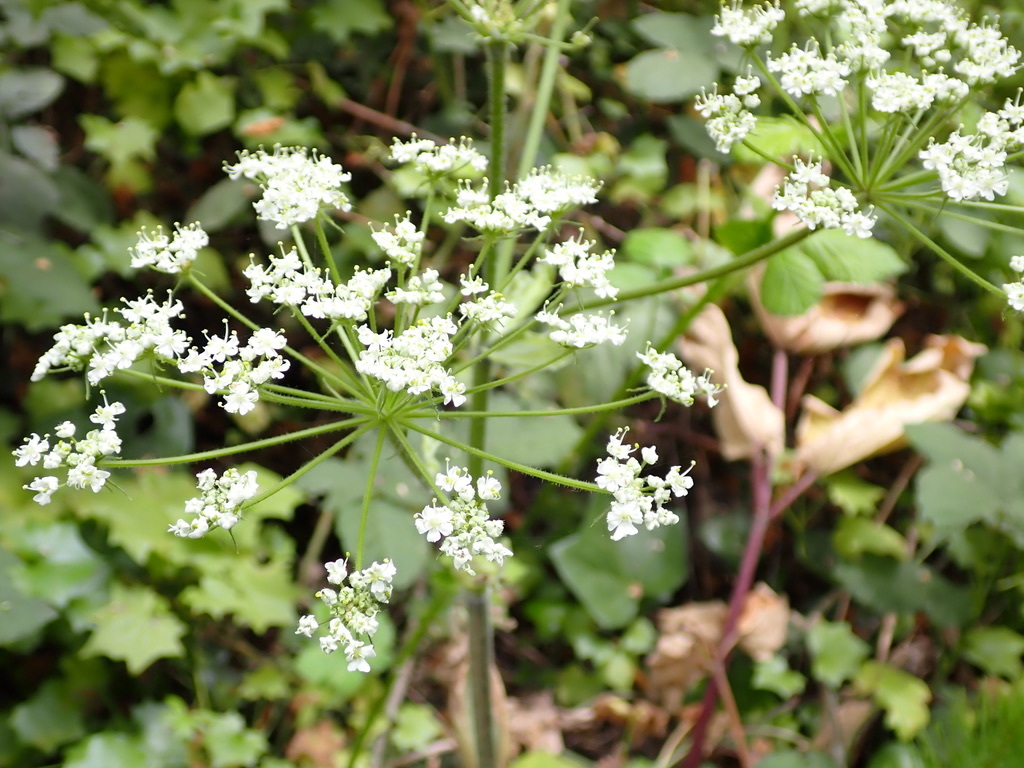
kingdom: Plantae
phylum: Tracheophyta
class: Magnoliopsida
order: Apiales
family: Apiaceae
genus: Heracleum
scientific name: Heracleum maximum
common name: American cow parsnip
